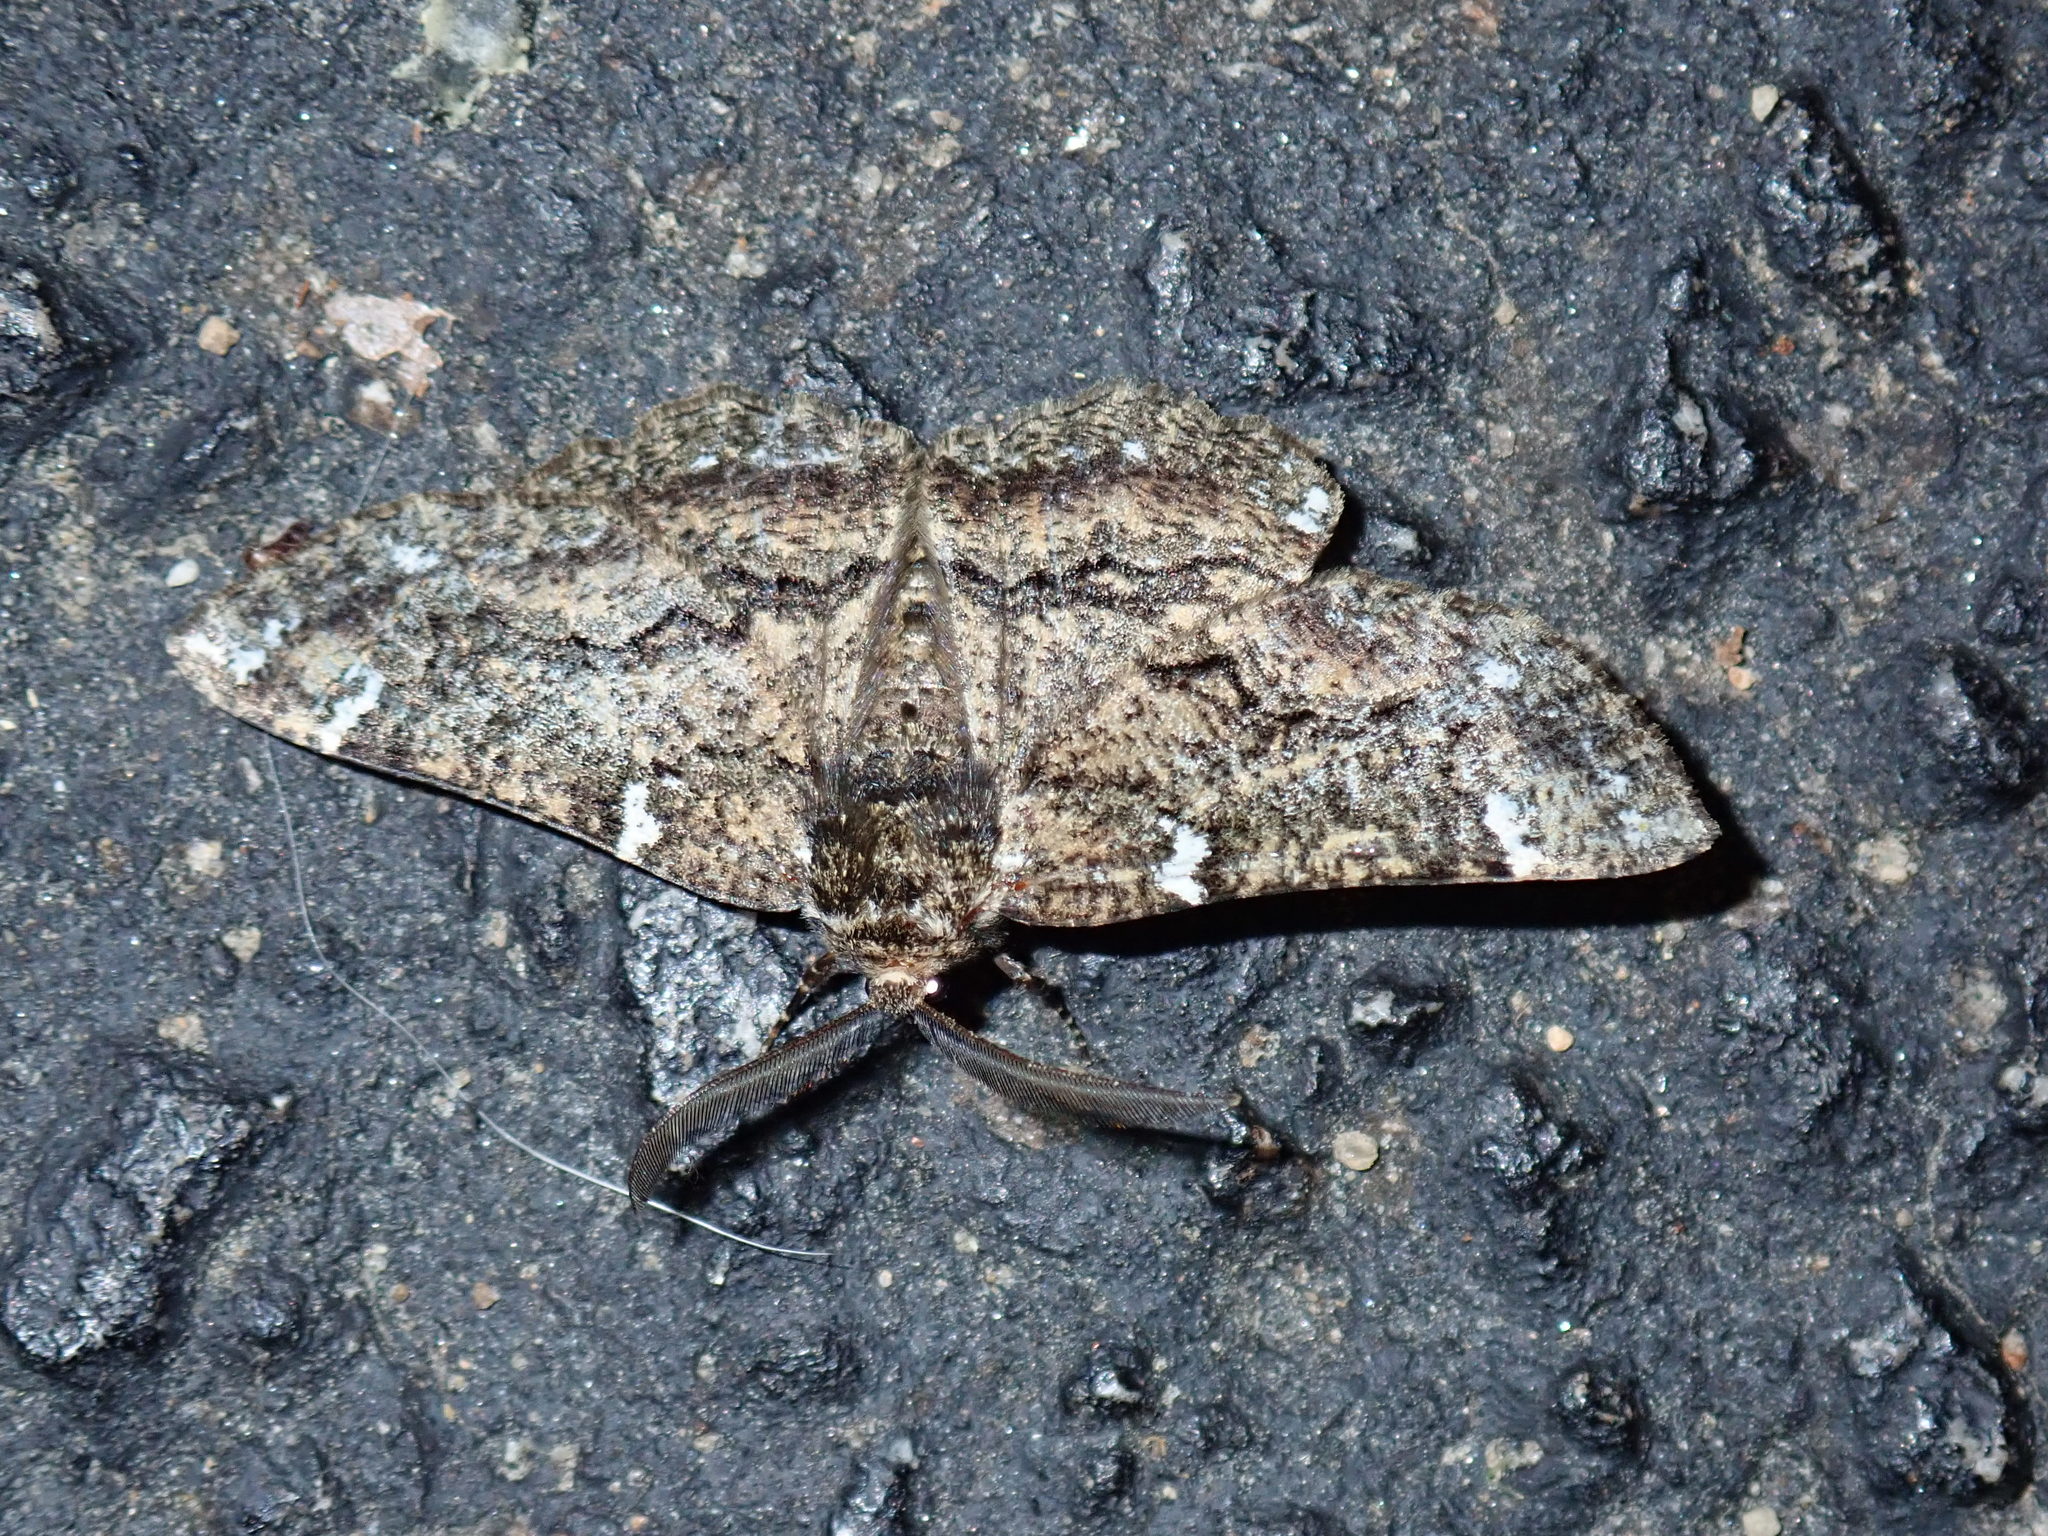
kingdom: Animalia
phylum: Arthropoda
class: Insecta
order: Lepidoptera
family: Geometridae
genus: Phaeoura
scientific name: Phaeoura quernaria
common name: Oak beauty
